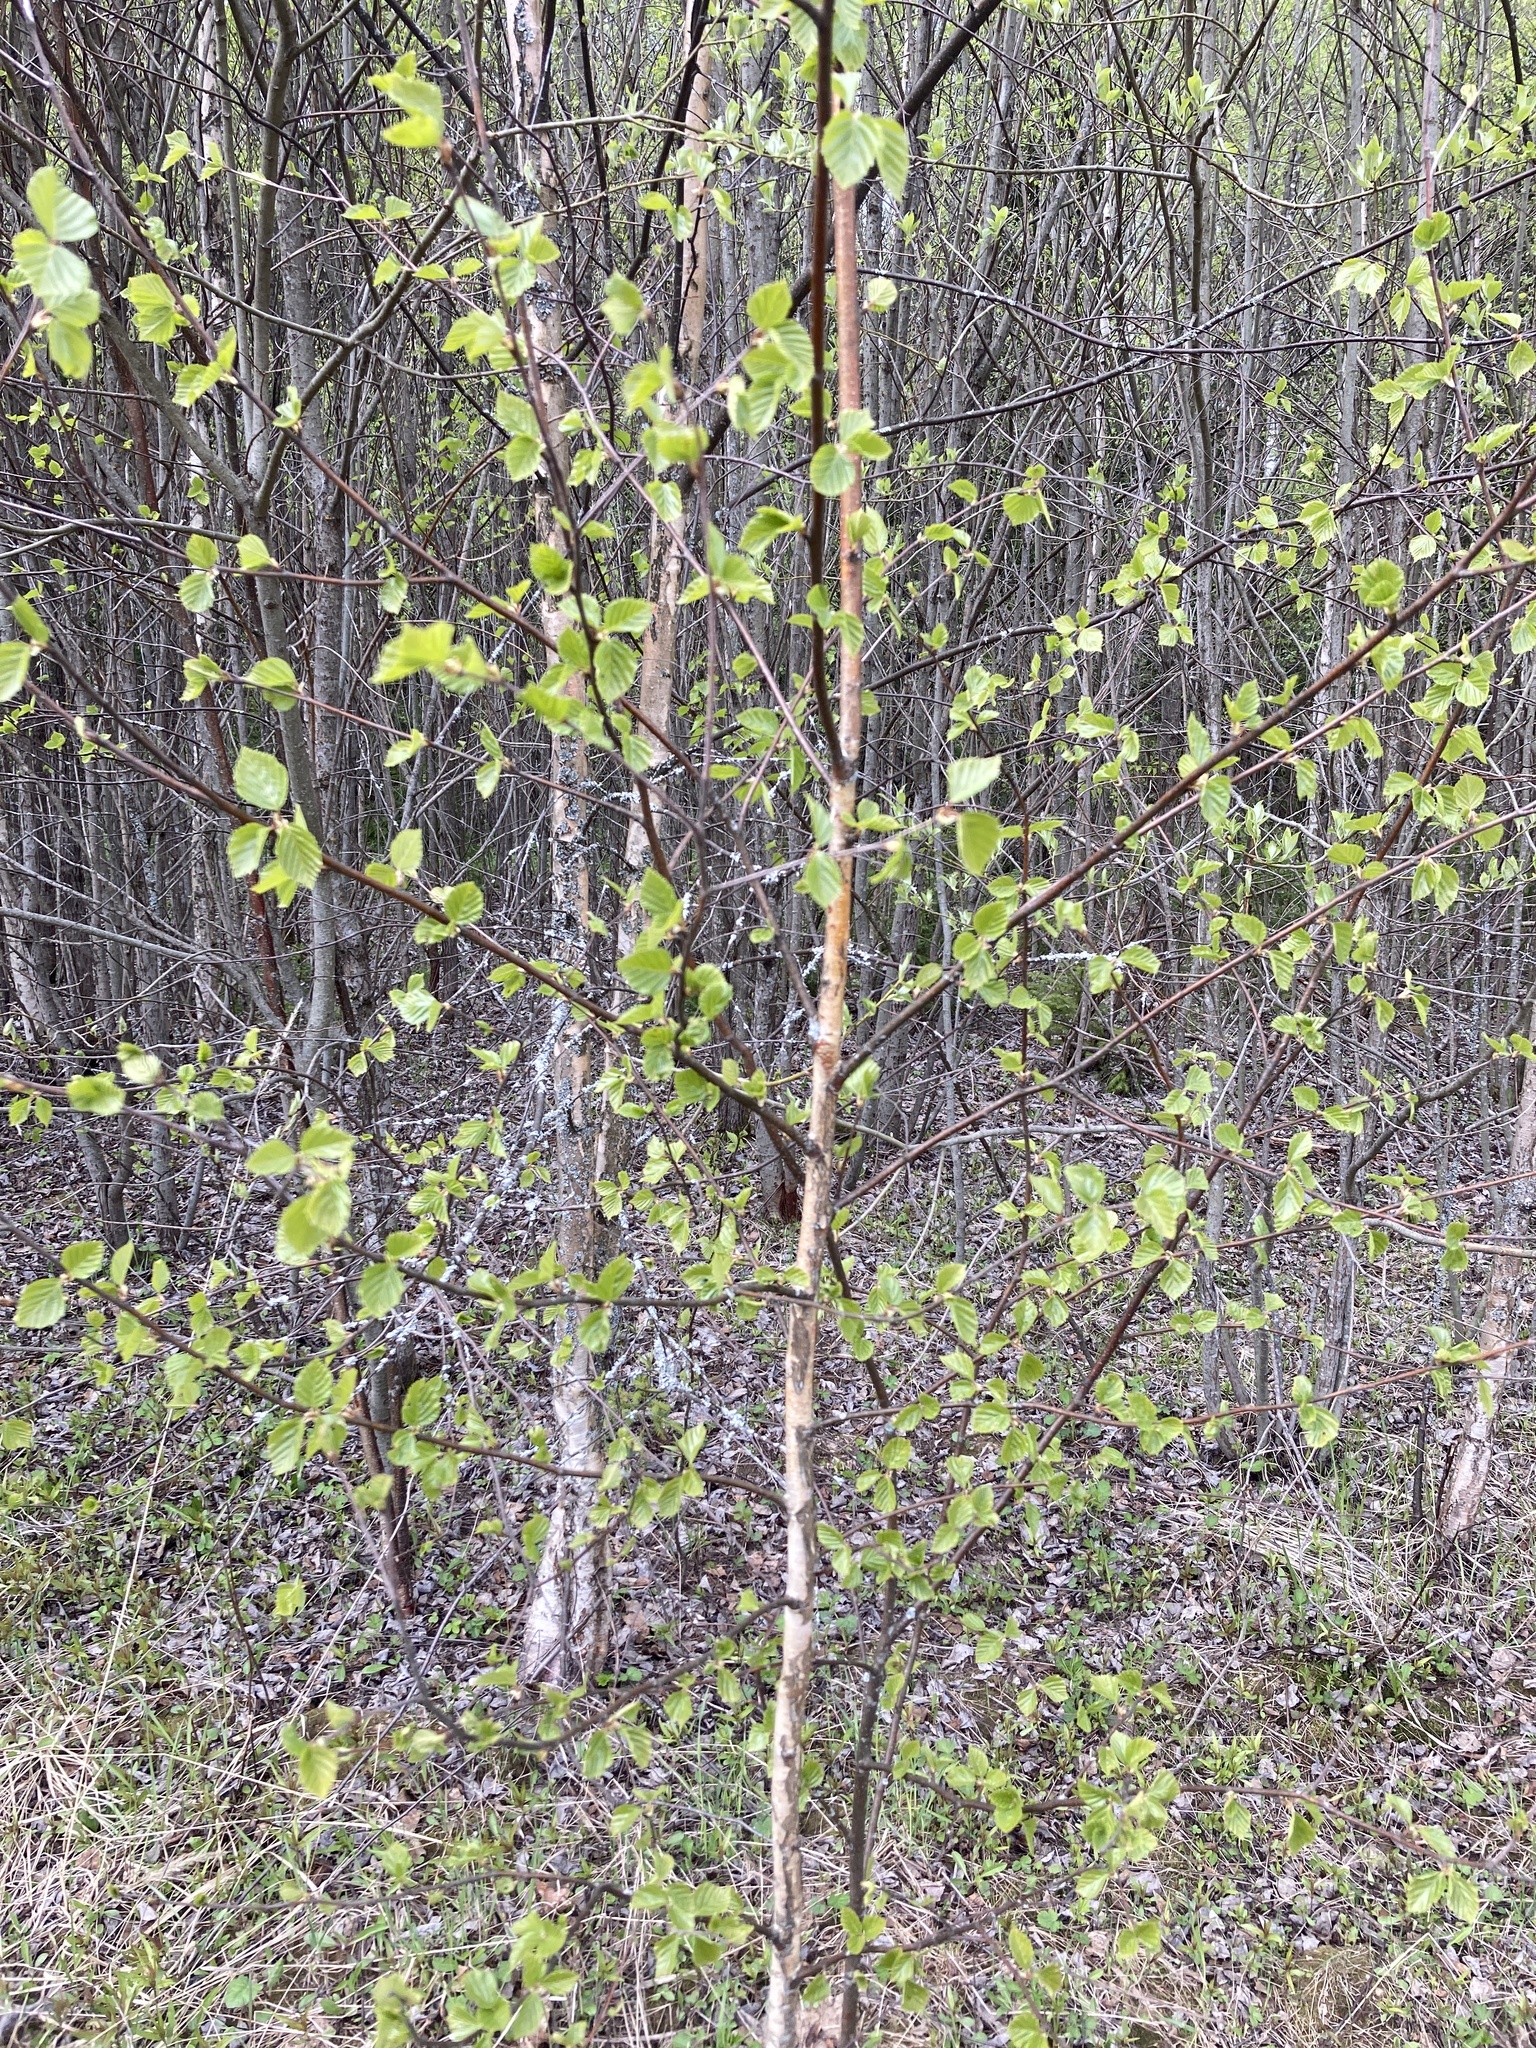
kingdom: Plantae
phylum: Tracheophyta
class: Magnoliopsida
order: Fagales
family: Betulaceae
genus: Betula
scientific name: Betula pubescens
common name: Downy birch
